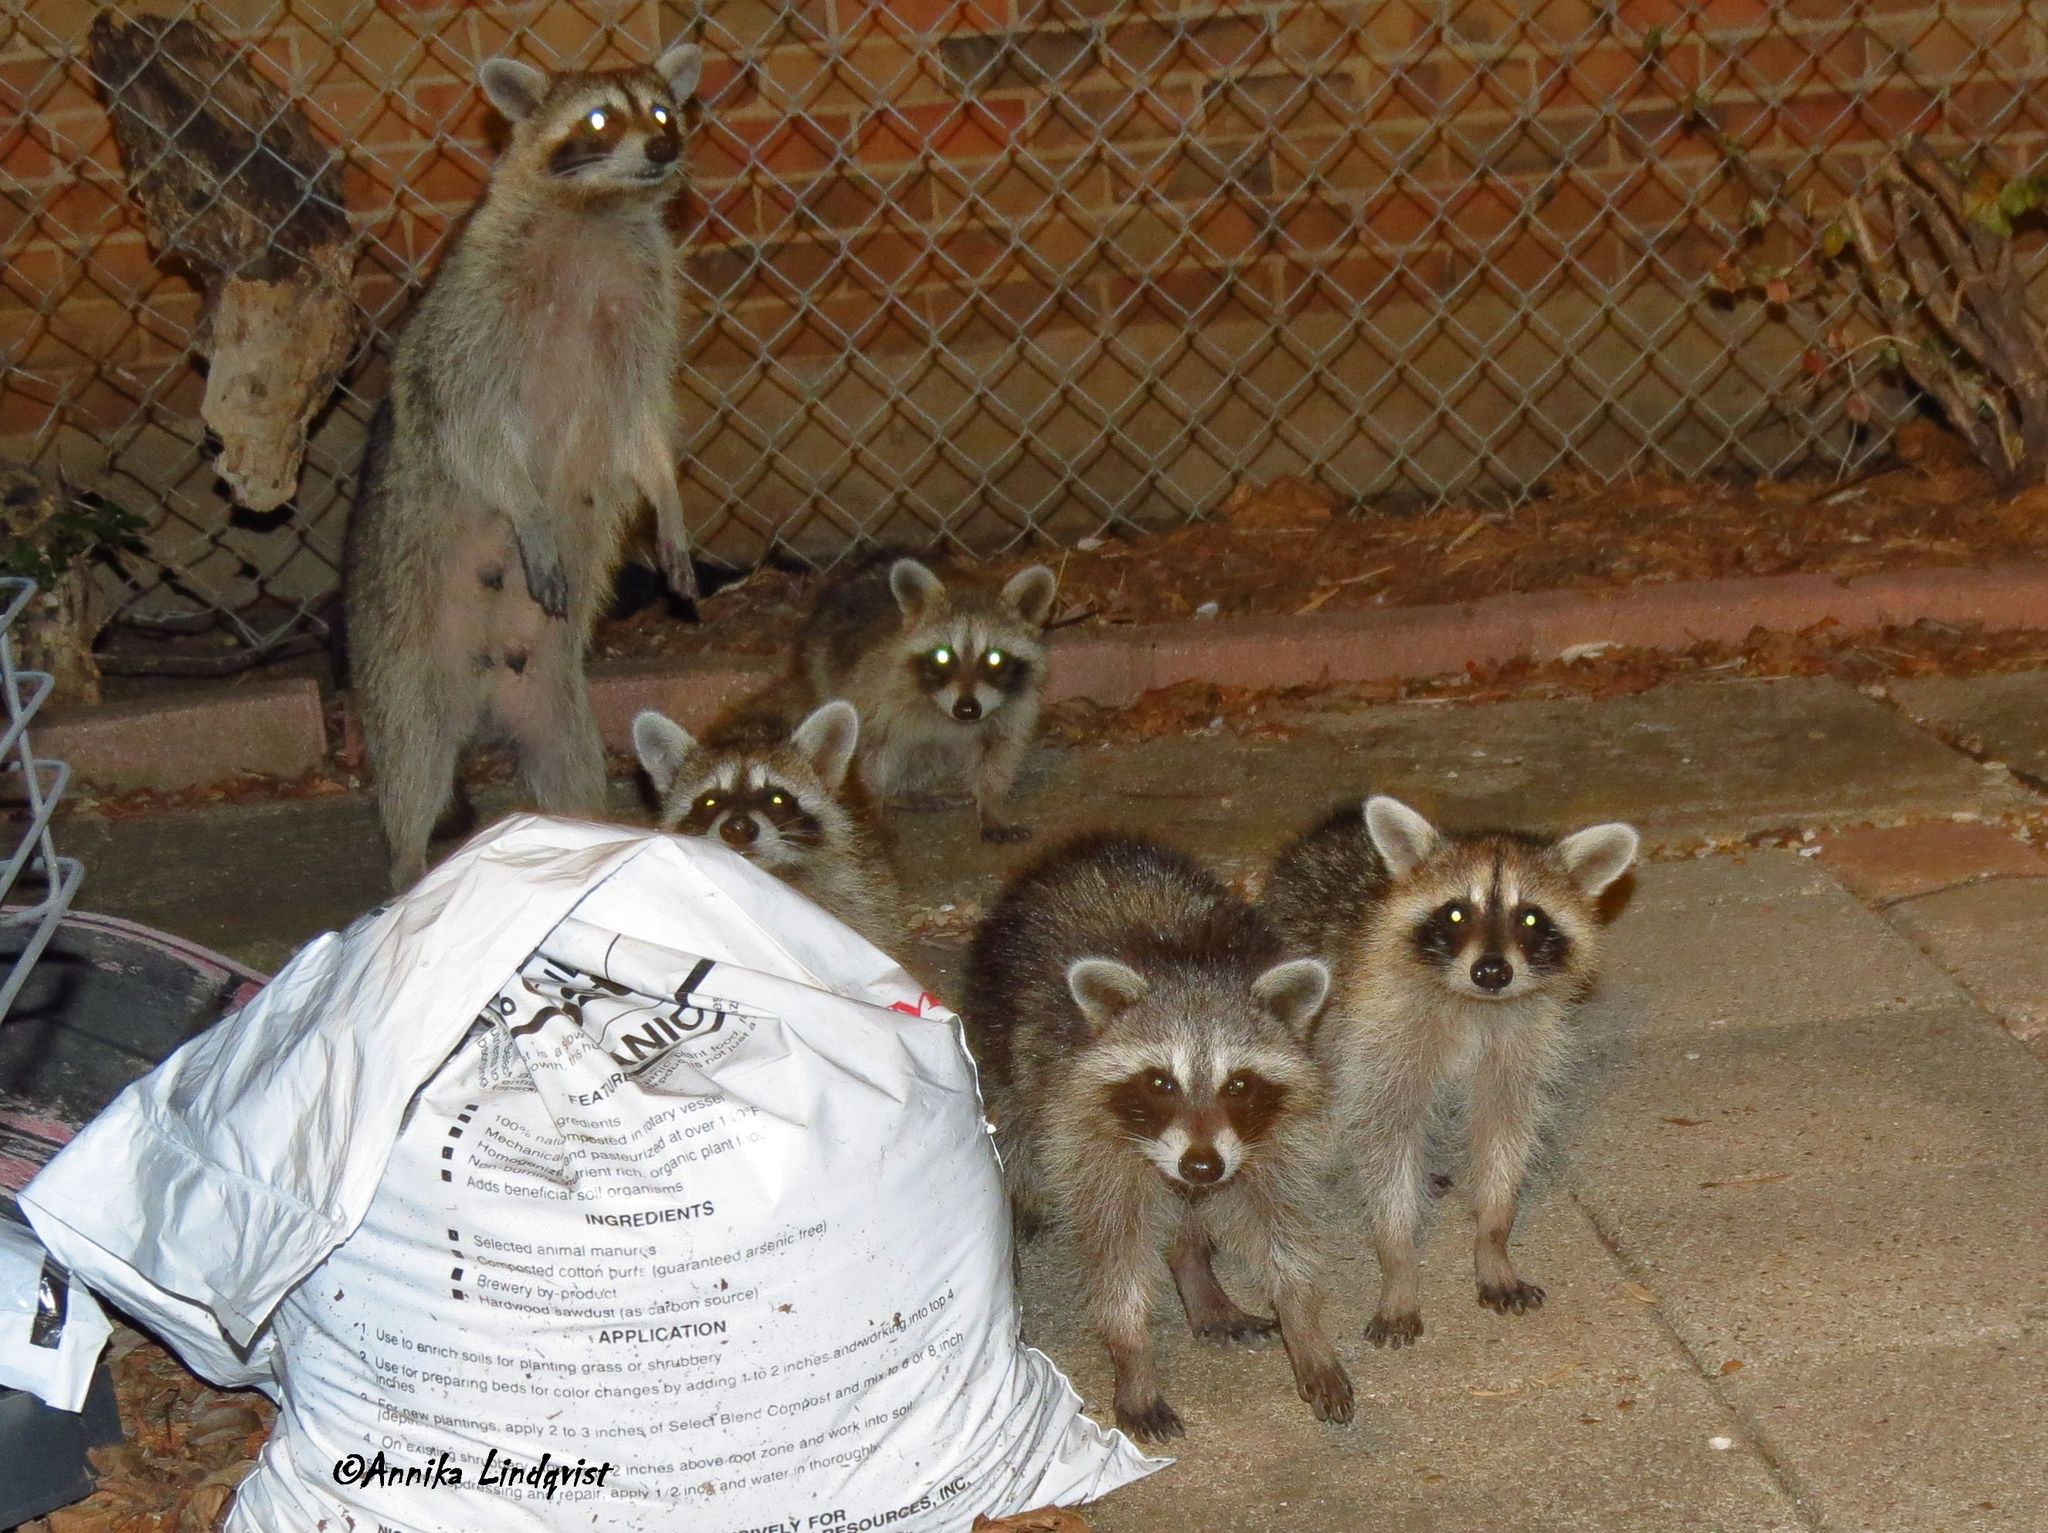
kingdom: Animalia
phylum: Chordata
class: Mammalia
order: Carnivora
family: Procyonidae
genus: Procyon
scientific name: Procyon lotor
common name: Raccoon
